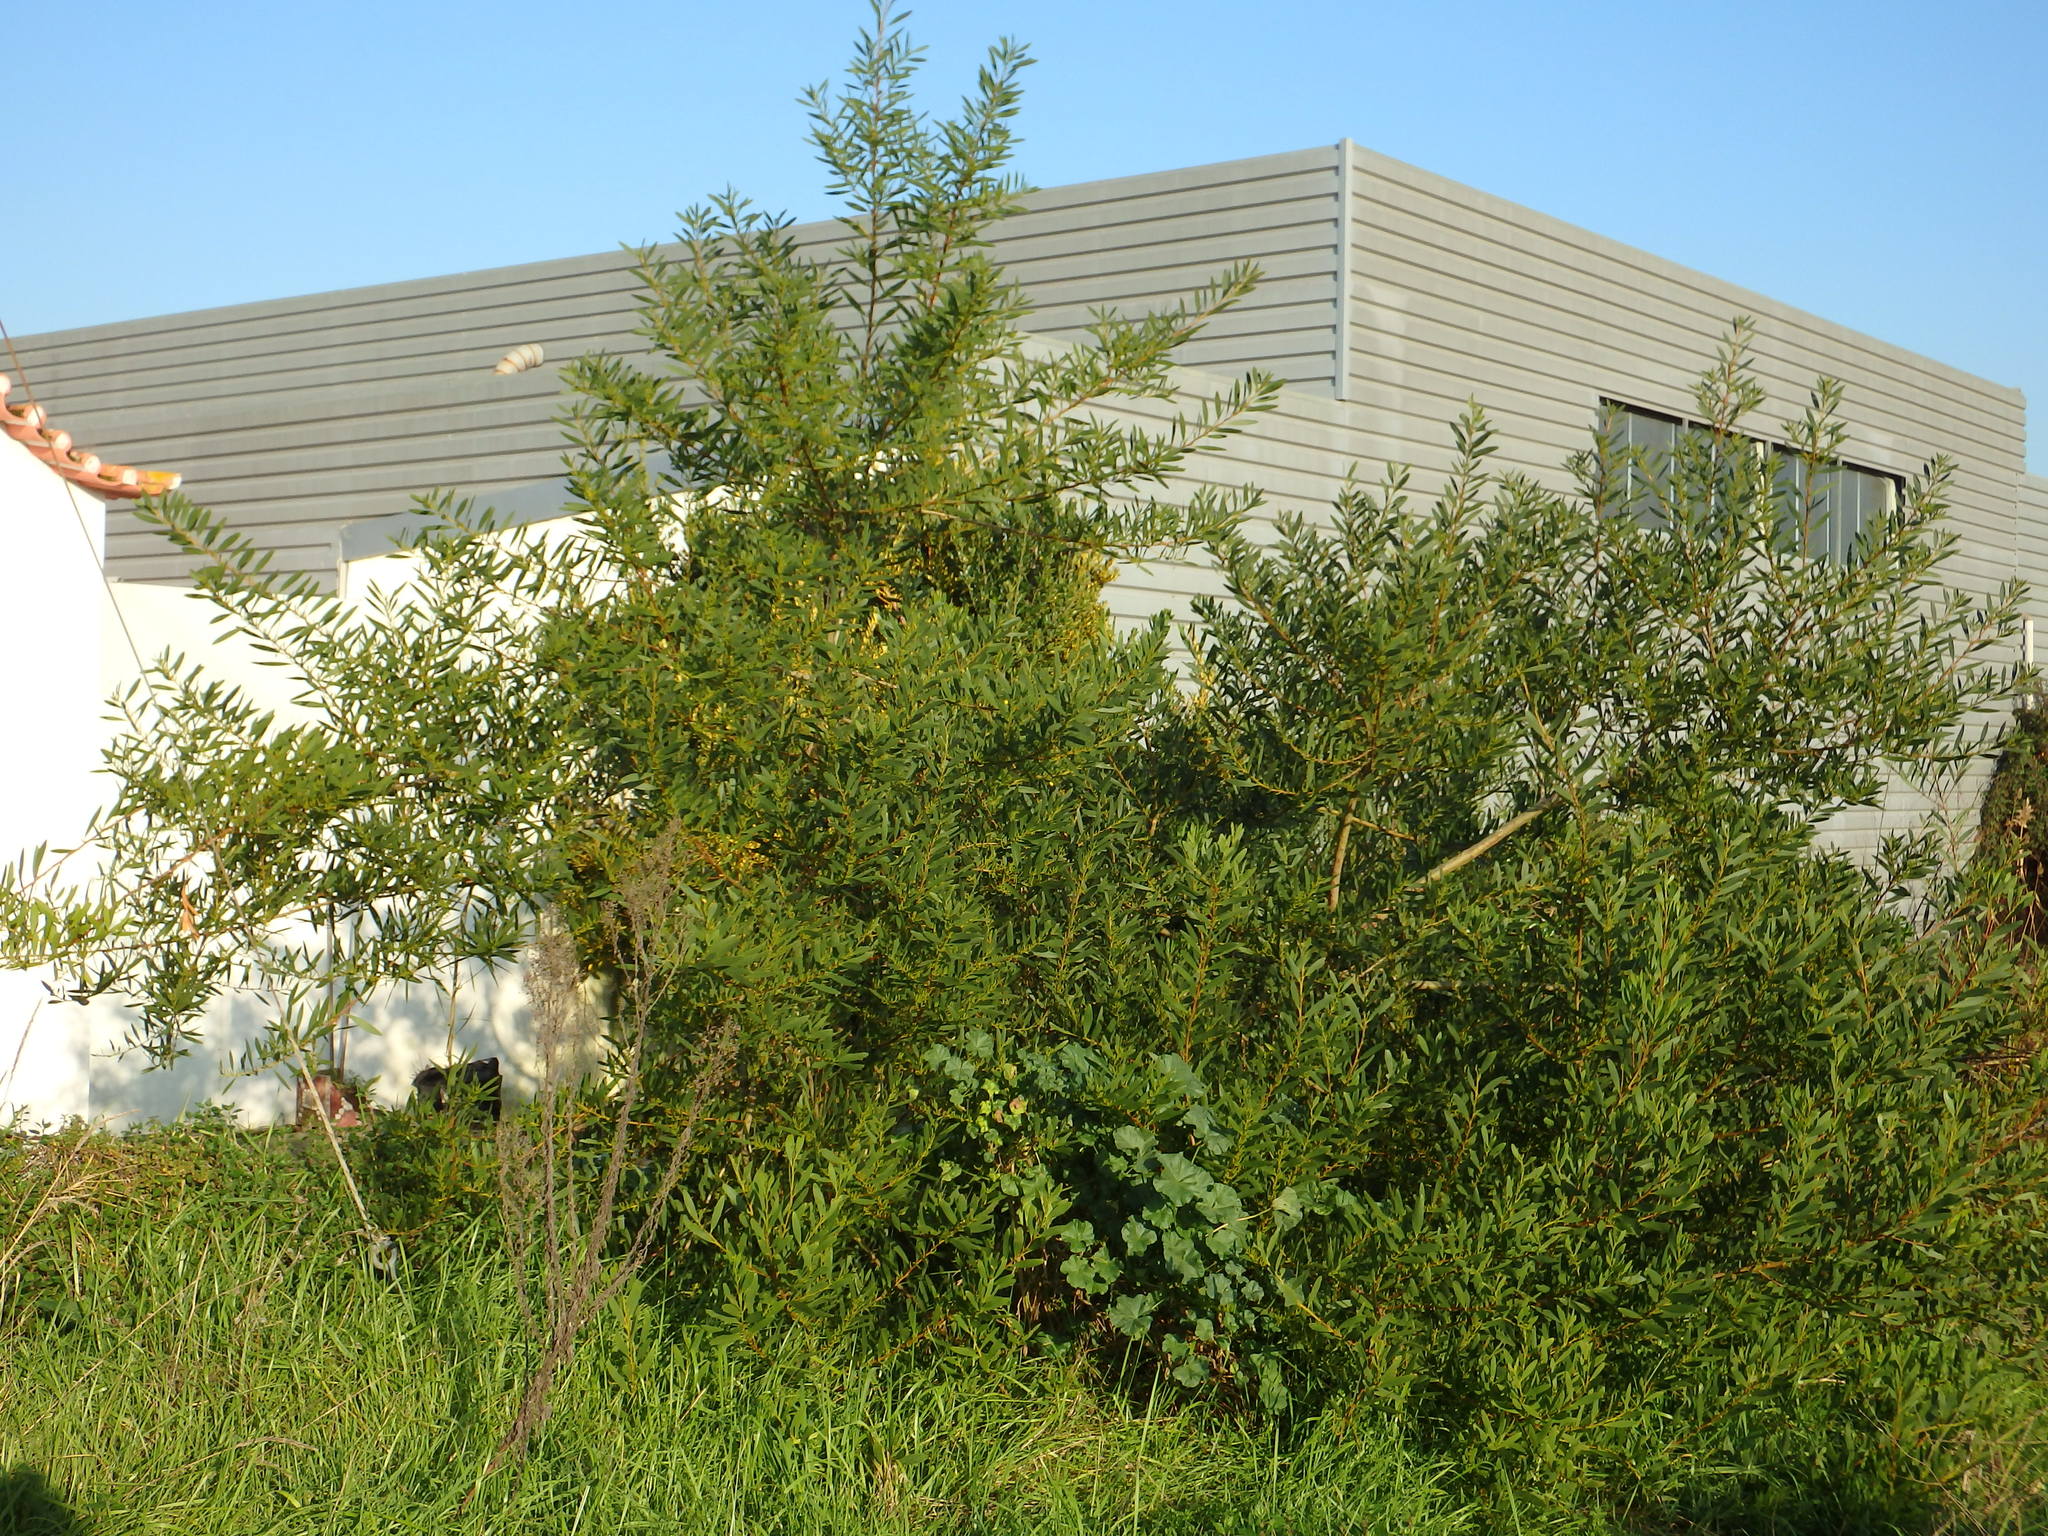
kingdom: Plantae
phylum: Tracheophyta
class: Magnoliopsida
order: Fabales
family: Fabaceae
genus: Acacia
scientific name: Acacia longifolia
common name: Sydney golden wattle
